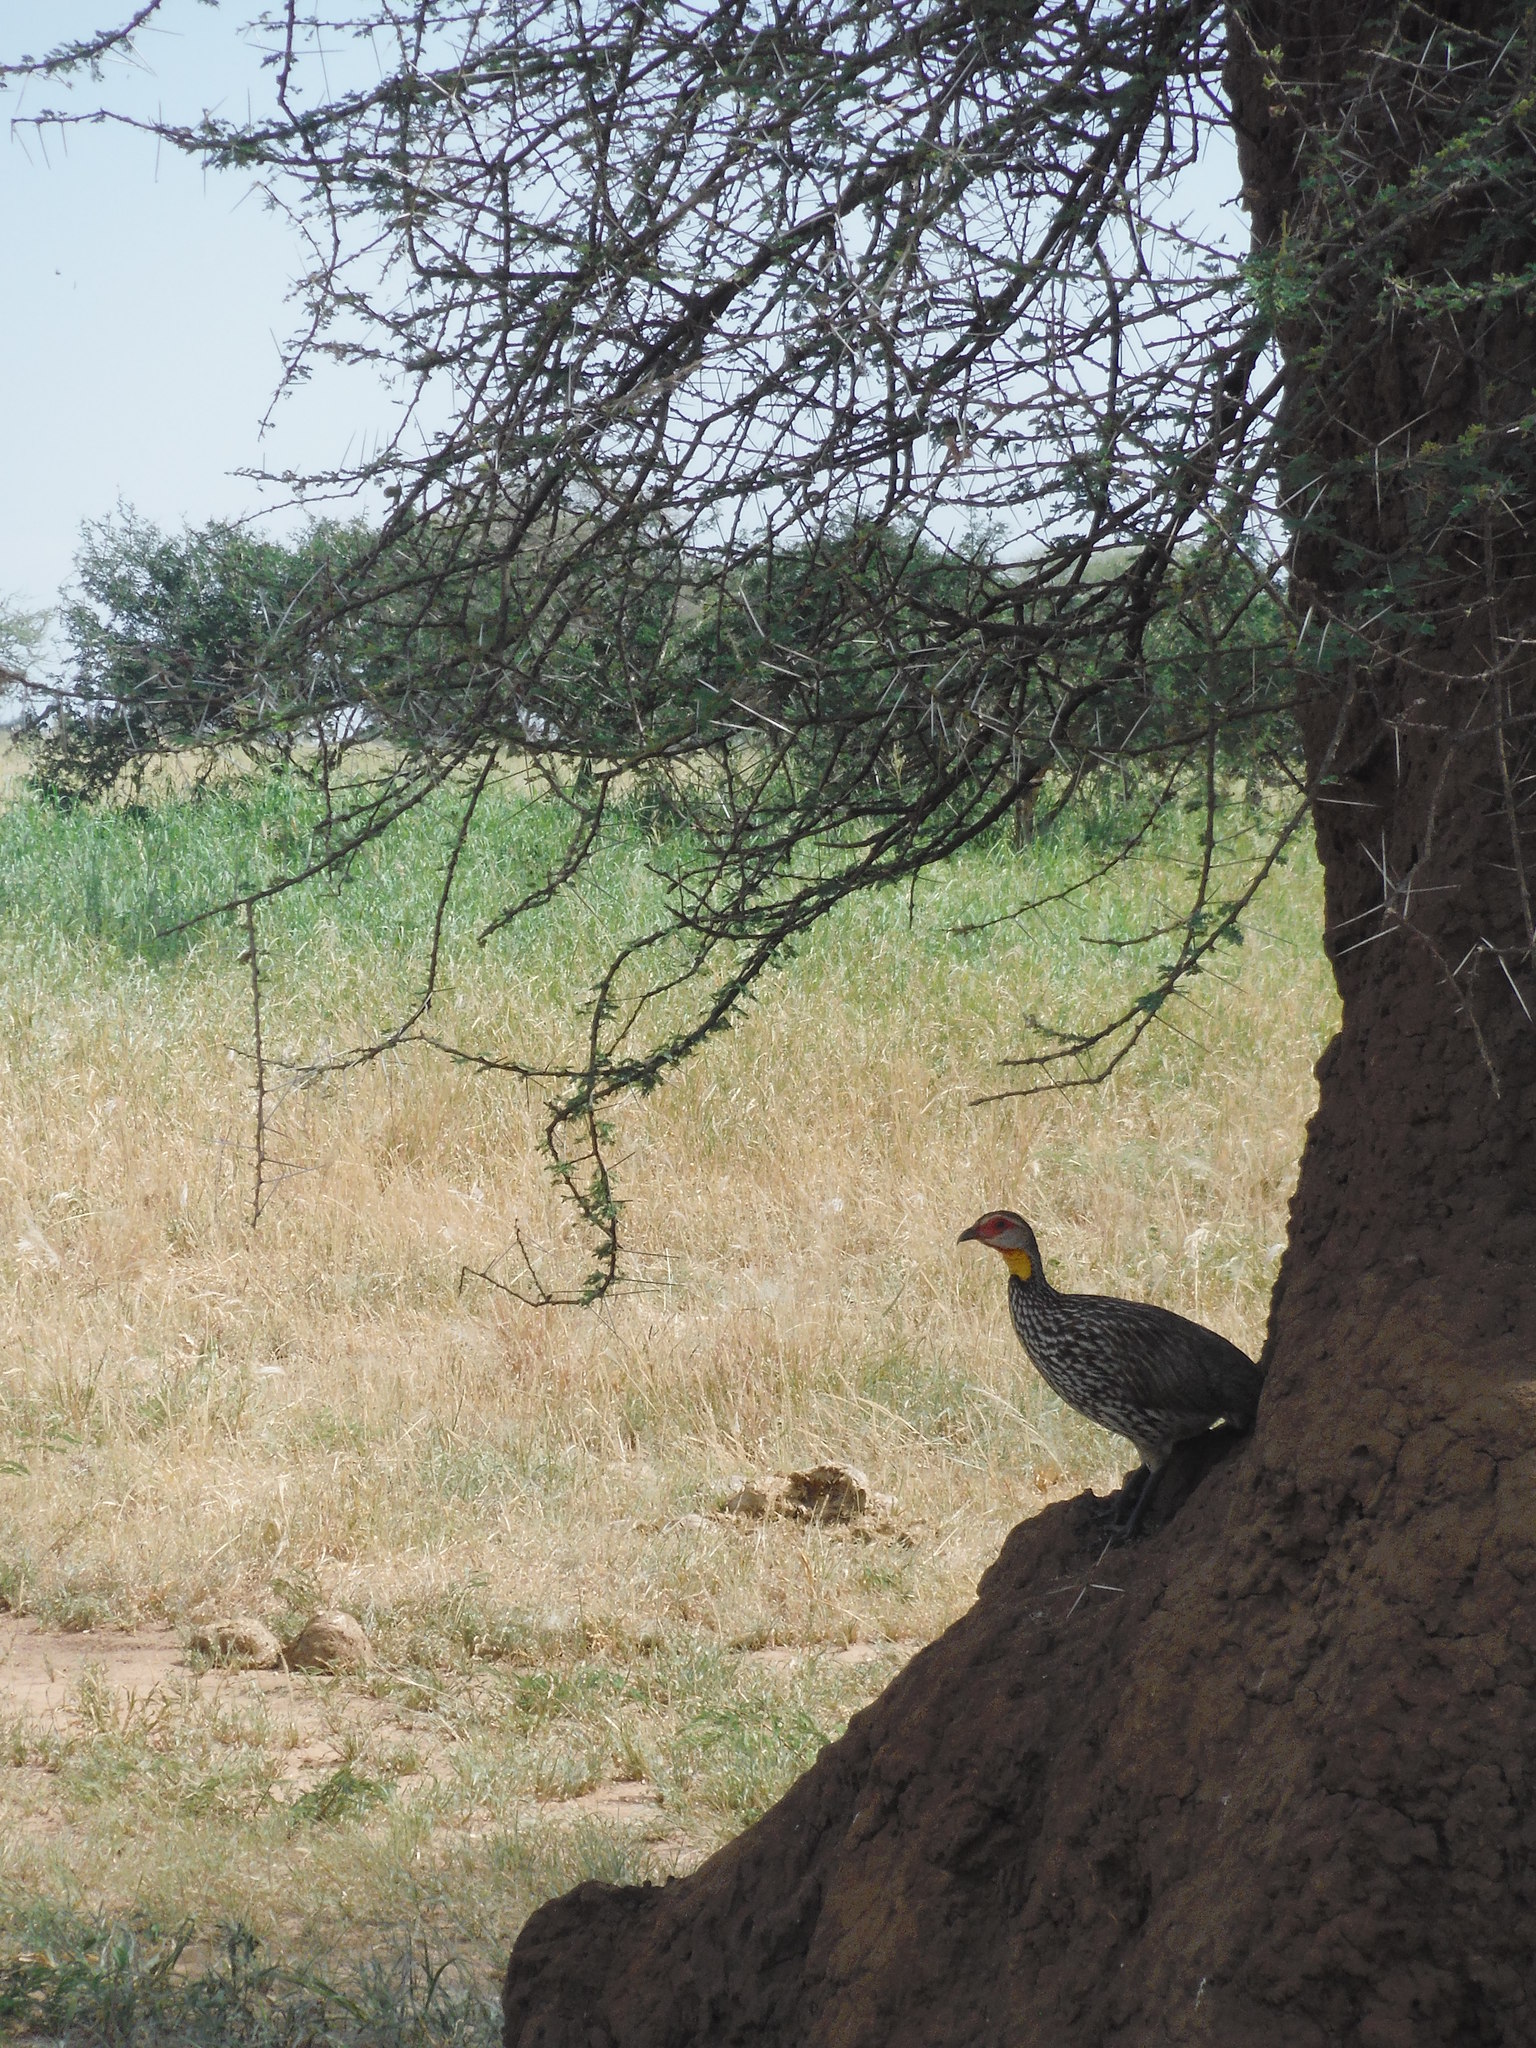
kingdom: Animalia
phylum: Chordata
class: Aves
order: Galliformes
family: Phasianidae
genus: Pternistis
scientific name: Pternistis leucoscepus
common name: Yellow-necked spurfowl
